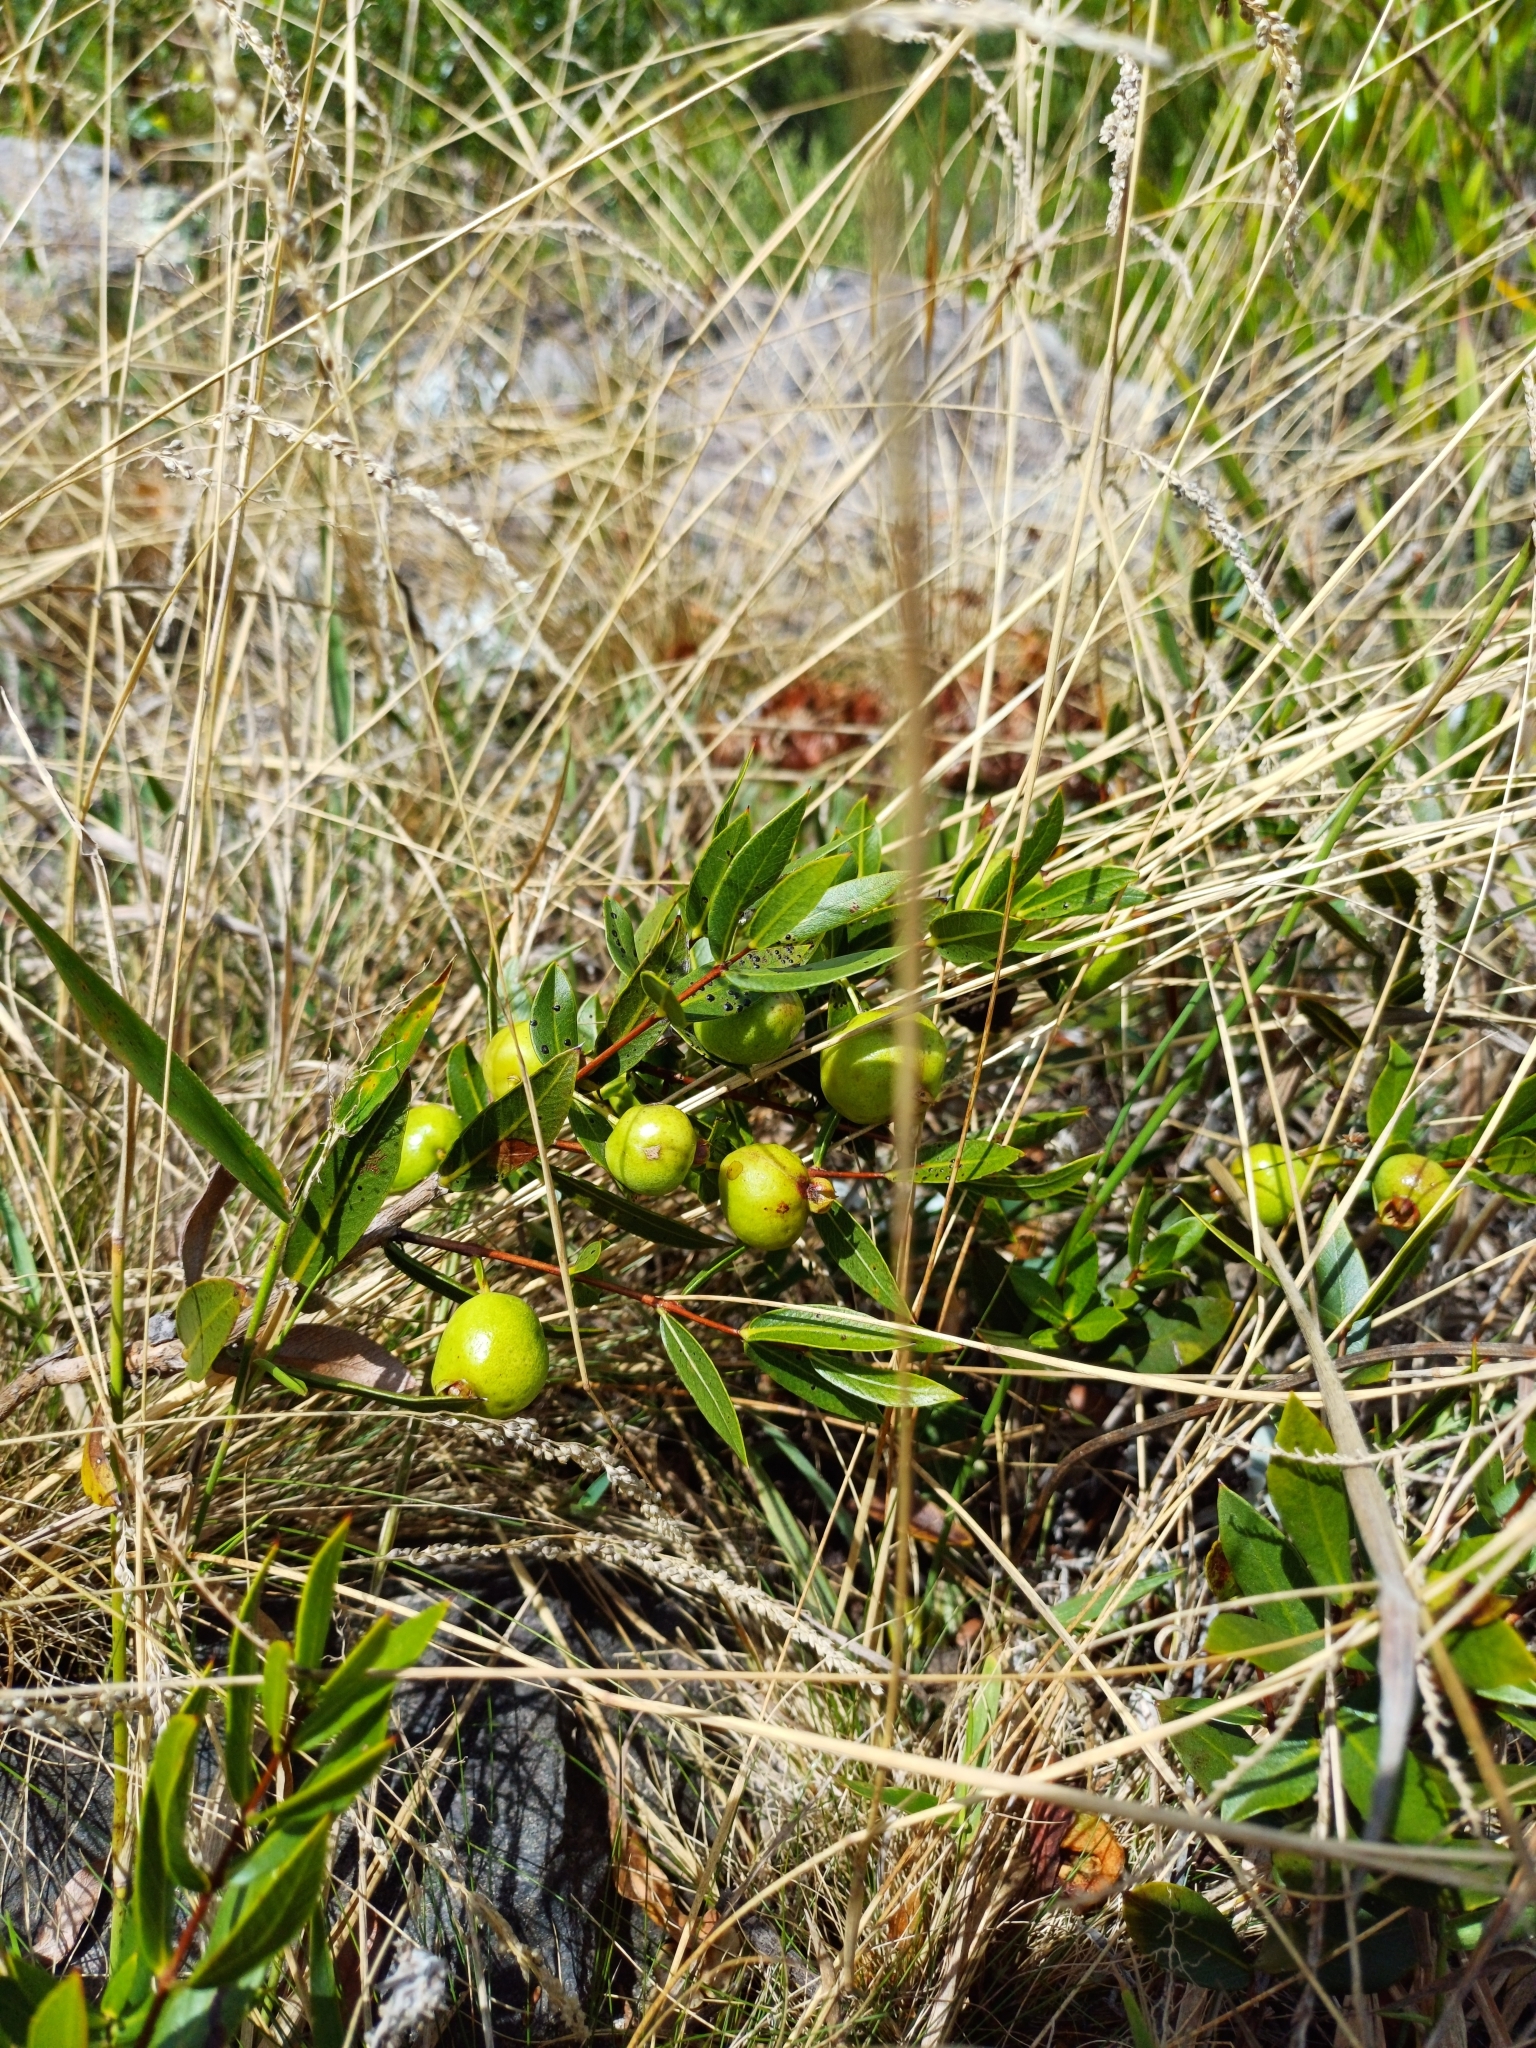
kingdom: Plantae
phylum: Tracheophyta
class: Magnoliopsida
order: Myrtales
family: Myrtaceae
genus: Psidium
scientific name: Psidium salutare
